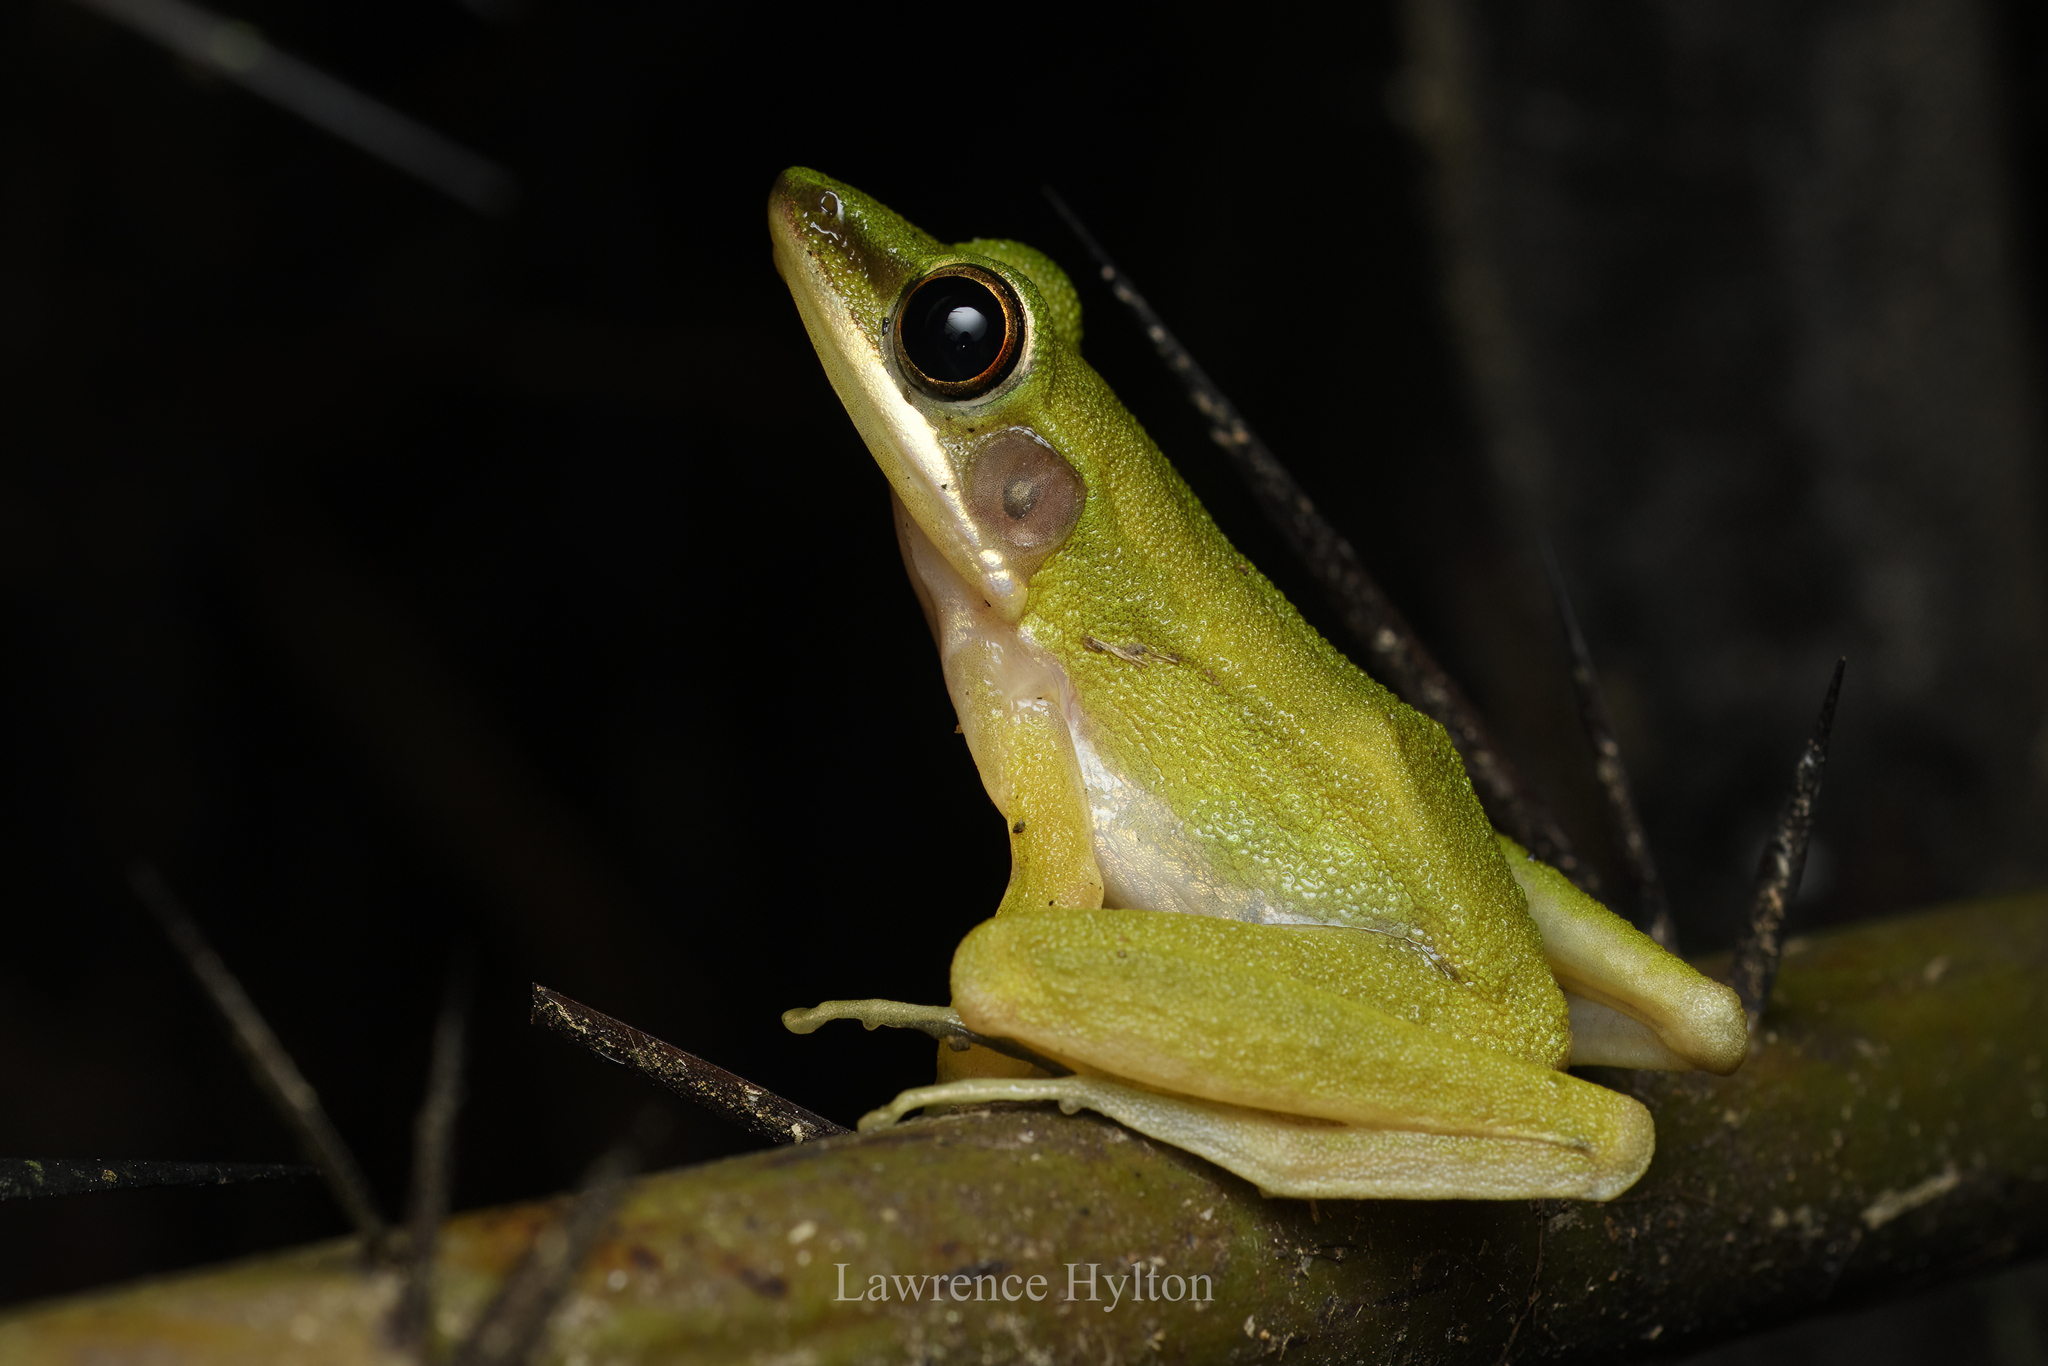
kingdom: Animalia
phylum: Chordata
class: Amphibia
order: Anura
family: Ranidae
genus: Chalcorana
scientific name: Chalcorana eschatia
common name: Tenasserim white-lipped frog
